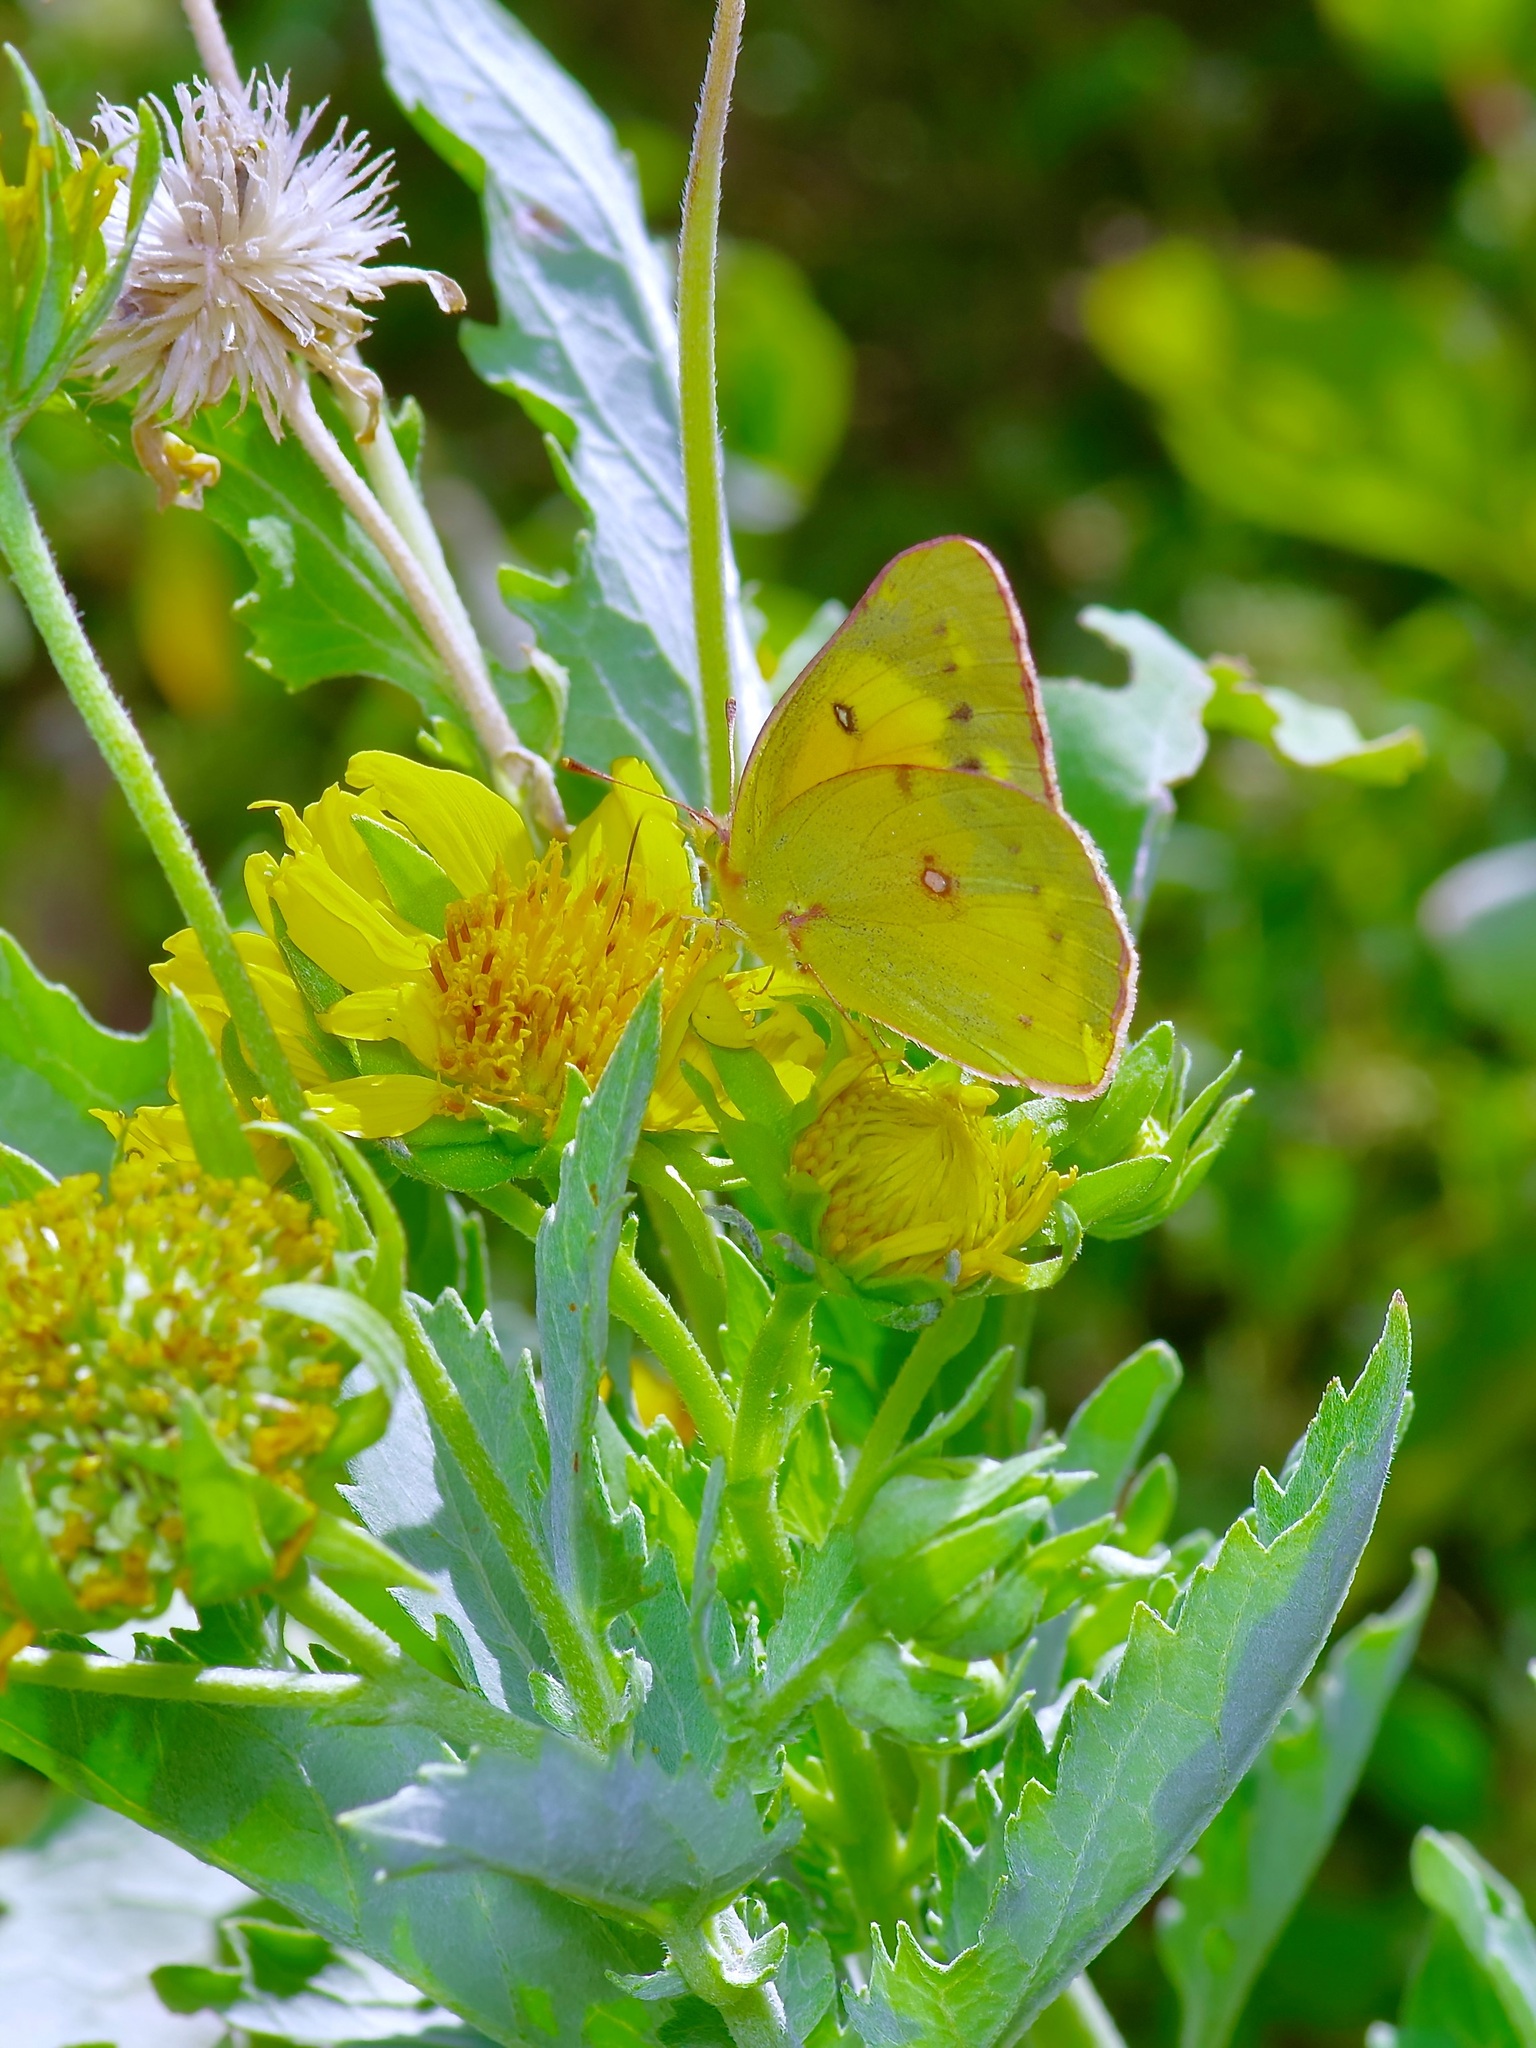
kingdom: Animalia
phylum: Arthropoda
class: Insecta
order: Lepidoptera
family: Pieridae
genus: Colias
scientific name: Colias eurytheme
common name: Alfalfa butterfly
